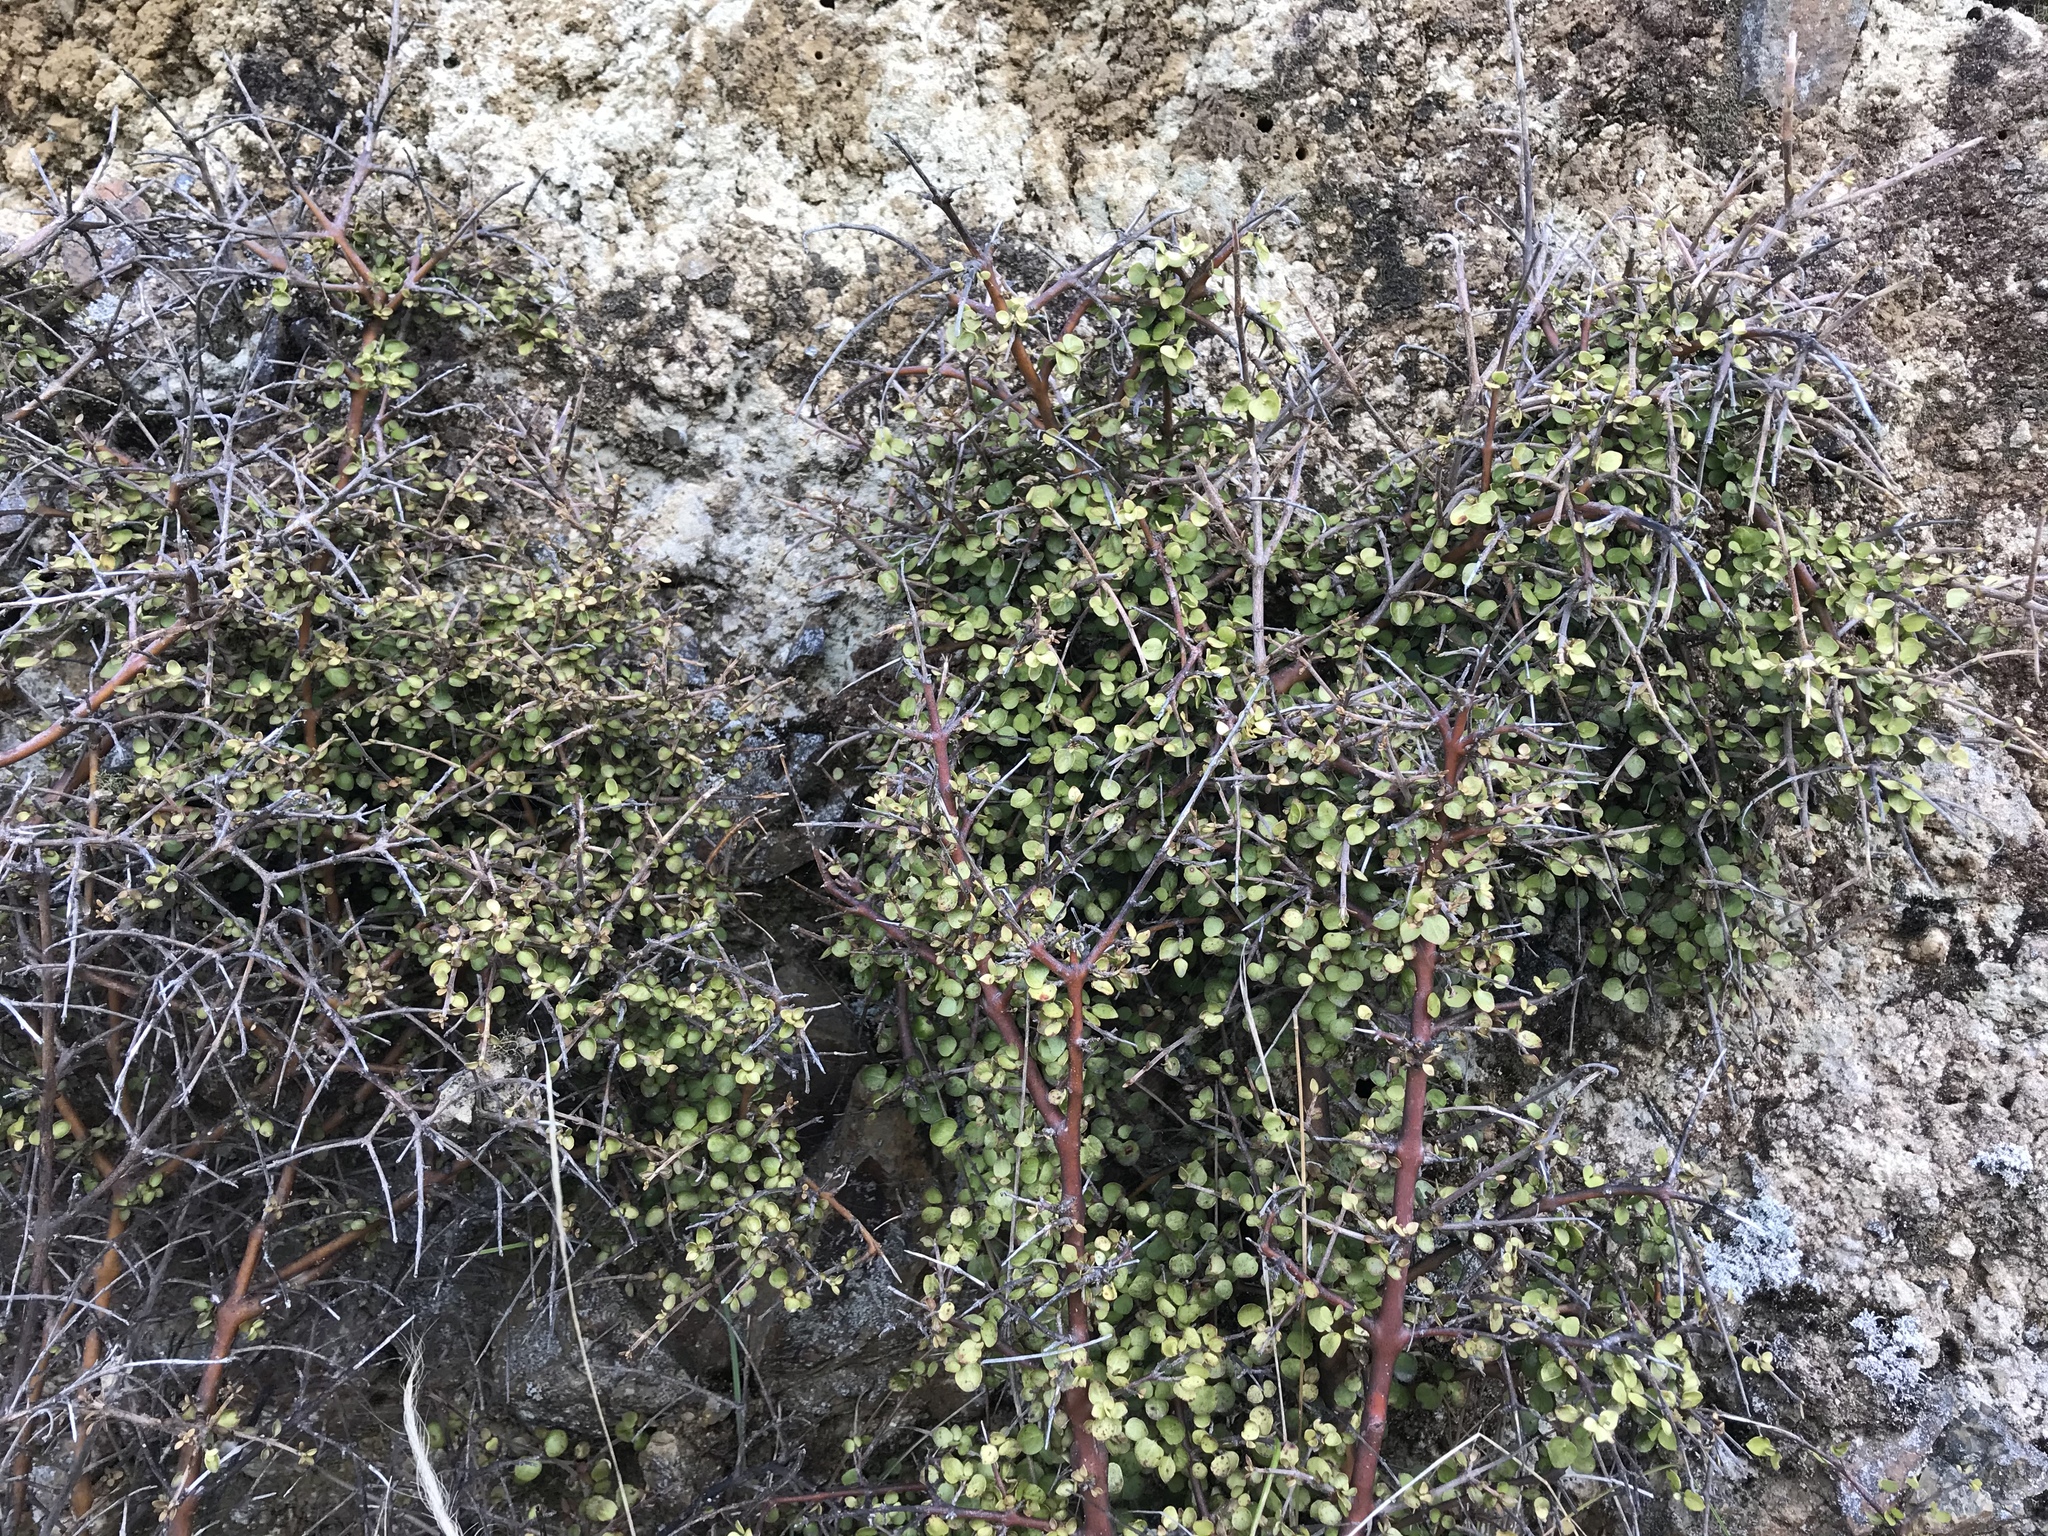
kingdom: Plantae
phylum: Tracheophyta
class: Magnoliopsida
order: Gentianales
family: Rubiaceae
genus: Coprosma
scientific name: Coprosma rhamnoides
